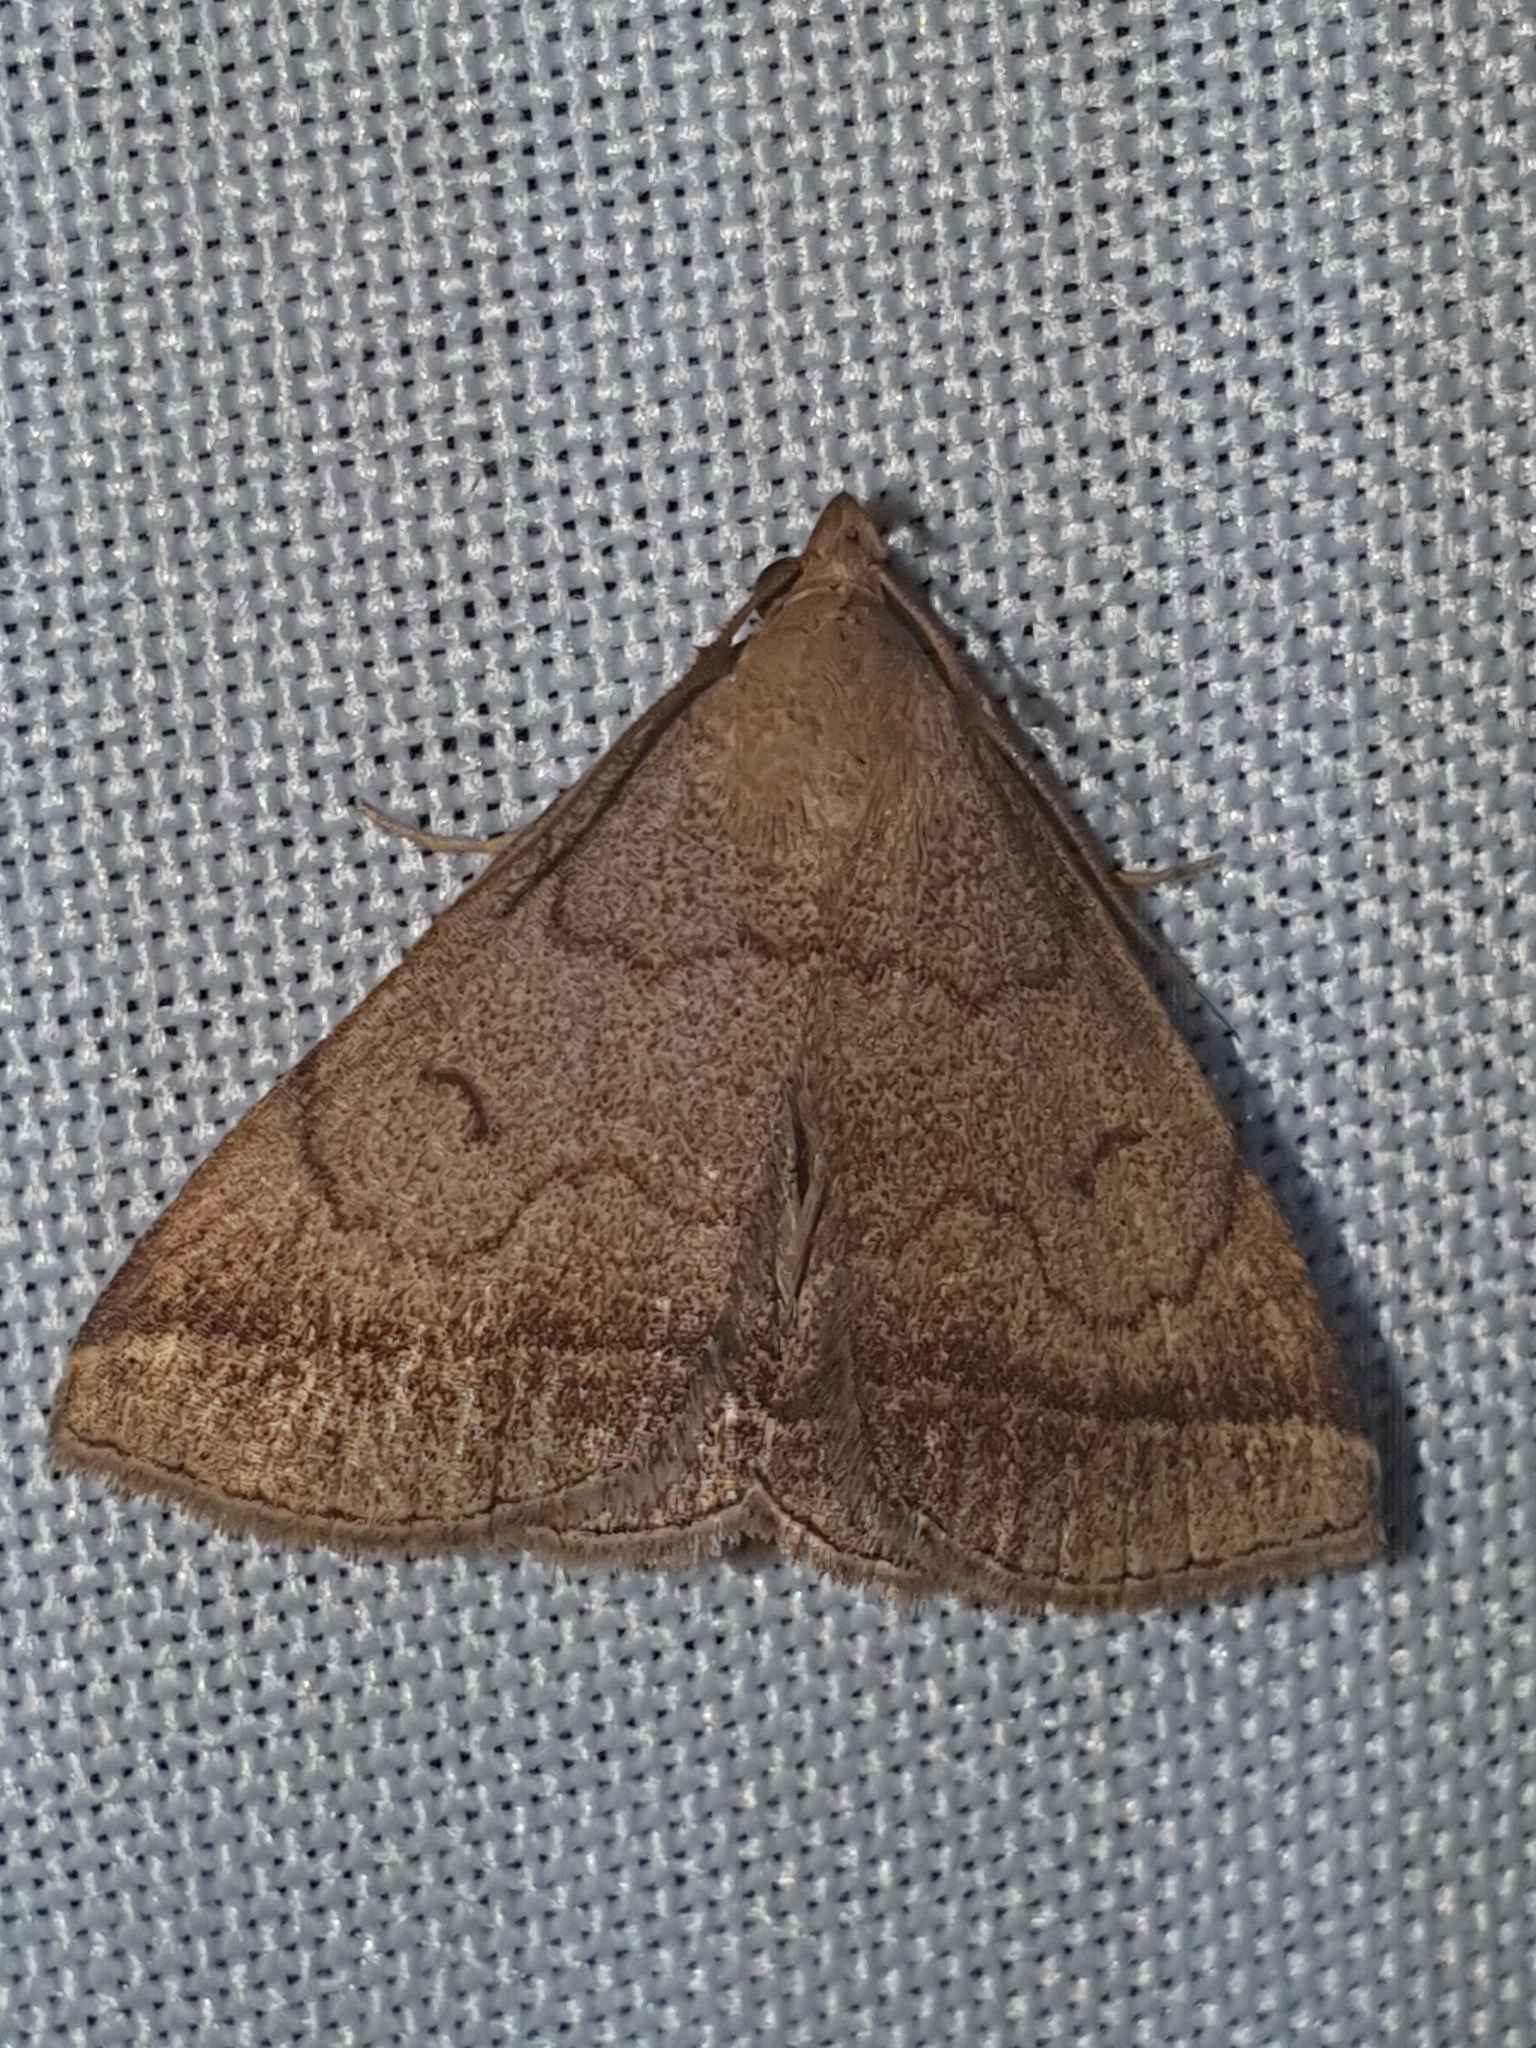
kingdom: Animalia
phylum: Arthropoda
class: Insecta
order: Lepidoptera
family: Erebidae
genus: Zanclognatha
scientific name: Zanclognatha lunalis
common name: Jubilee fan-foot
